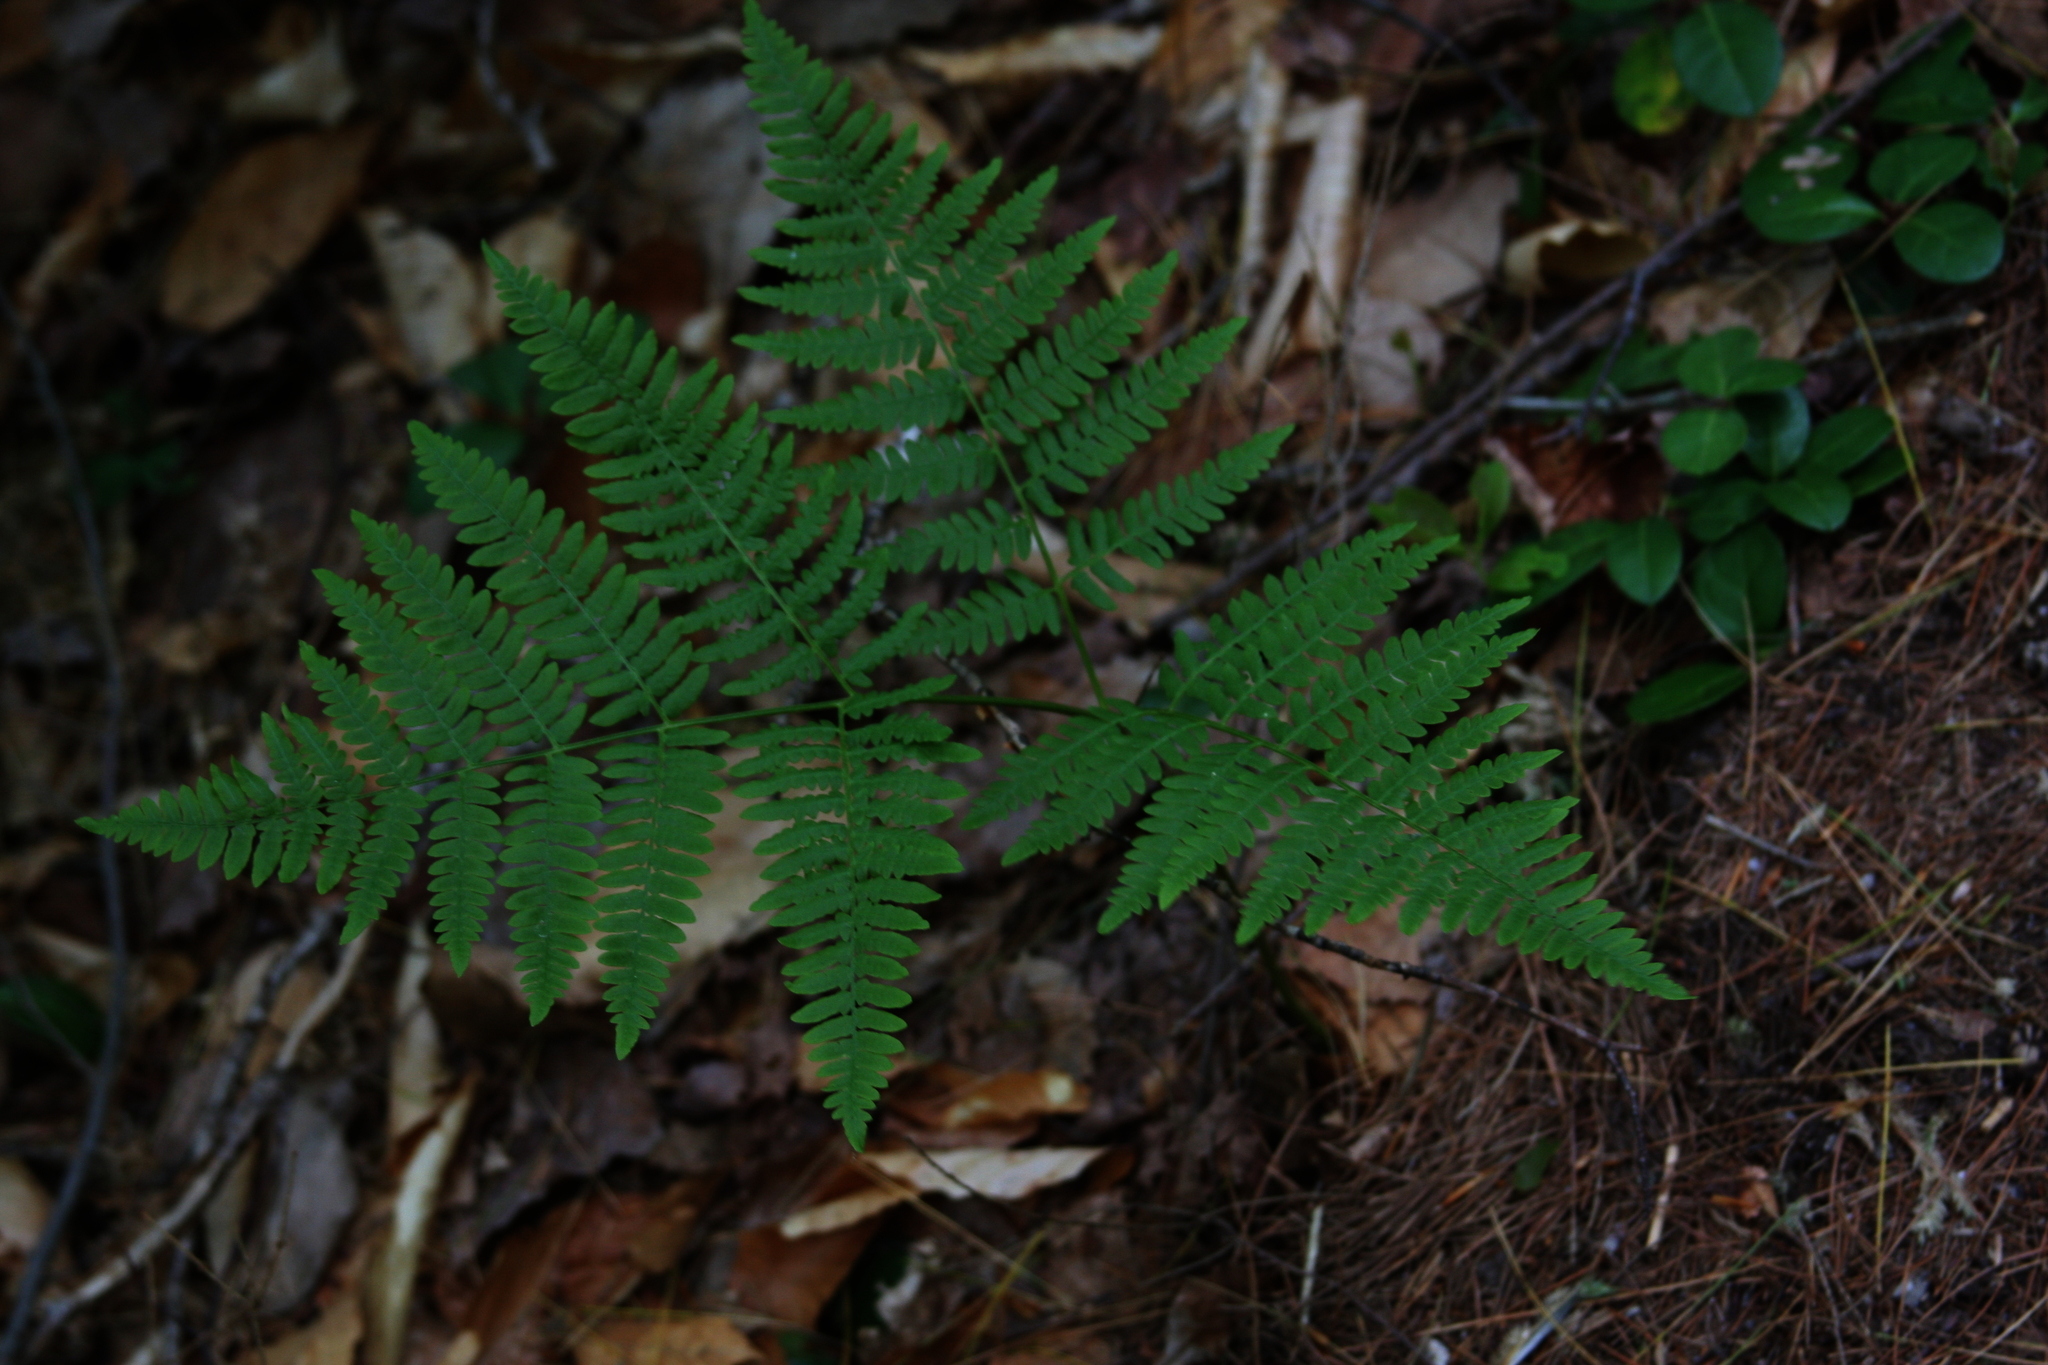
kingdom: Plantae
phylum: Tracheophyta
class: Magnoliopsida
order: Ericales
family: Ericaceae
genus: Gaultheria
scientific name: Gaultheria procumbens
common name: Checkerberry
